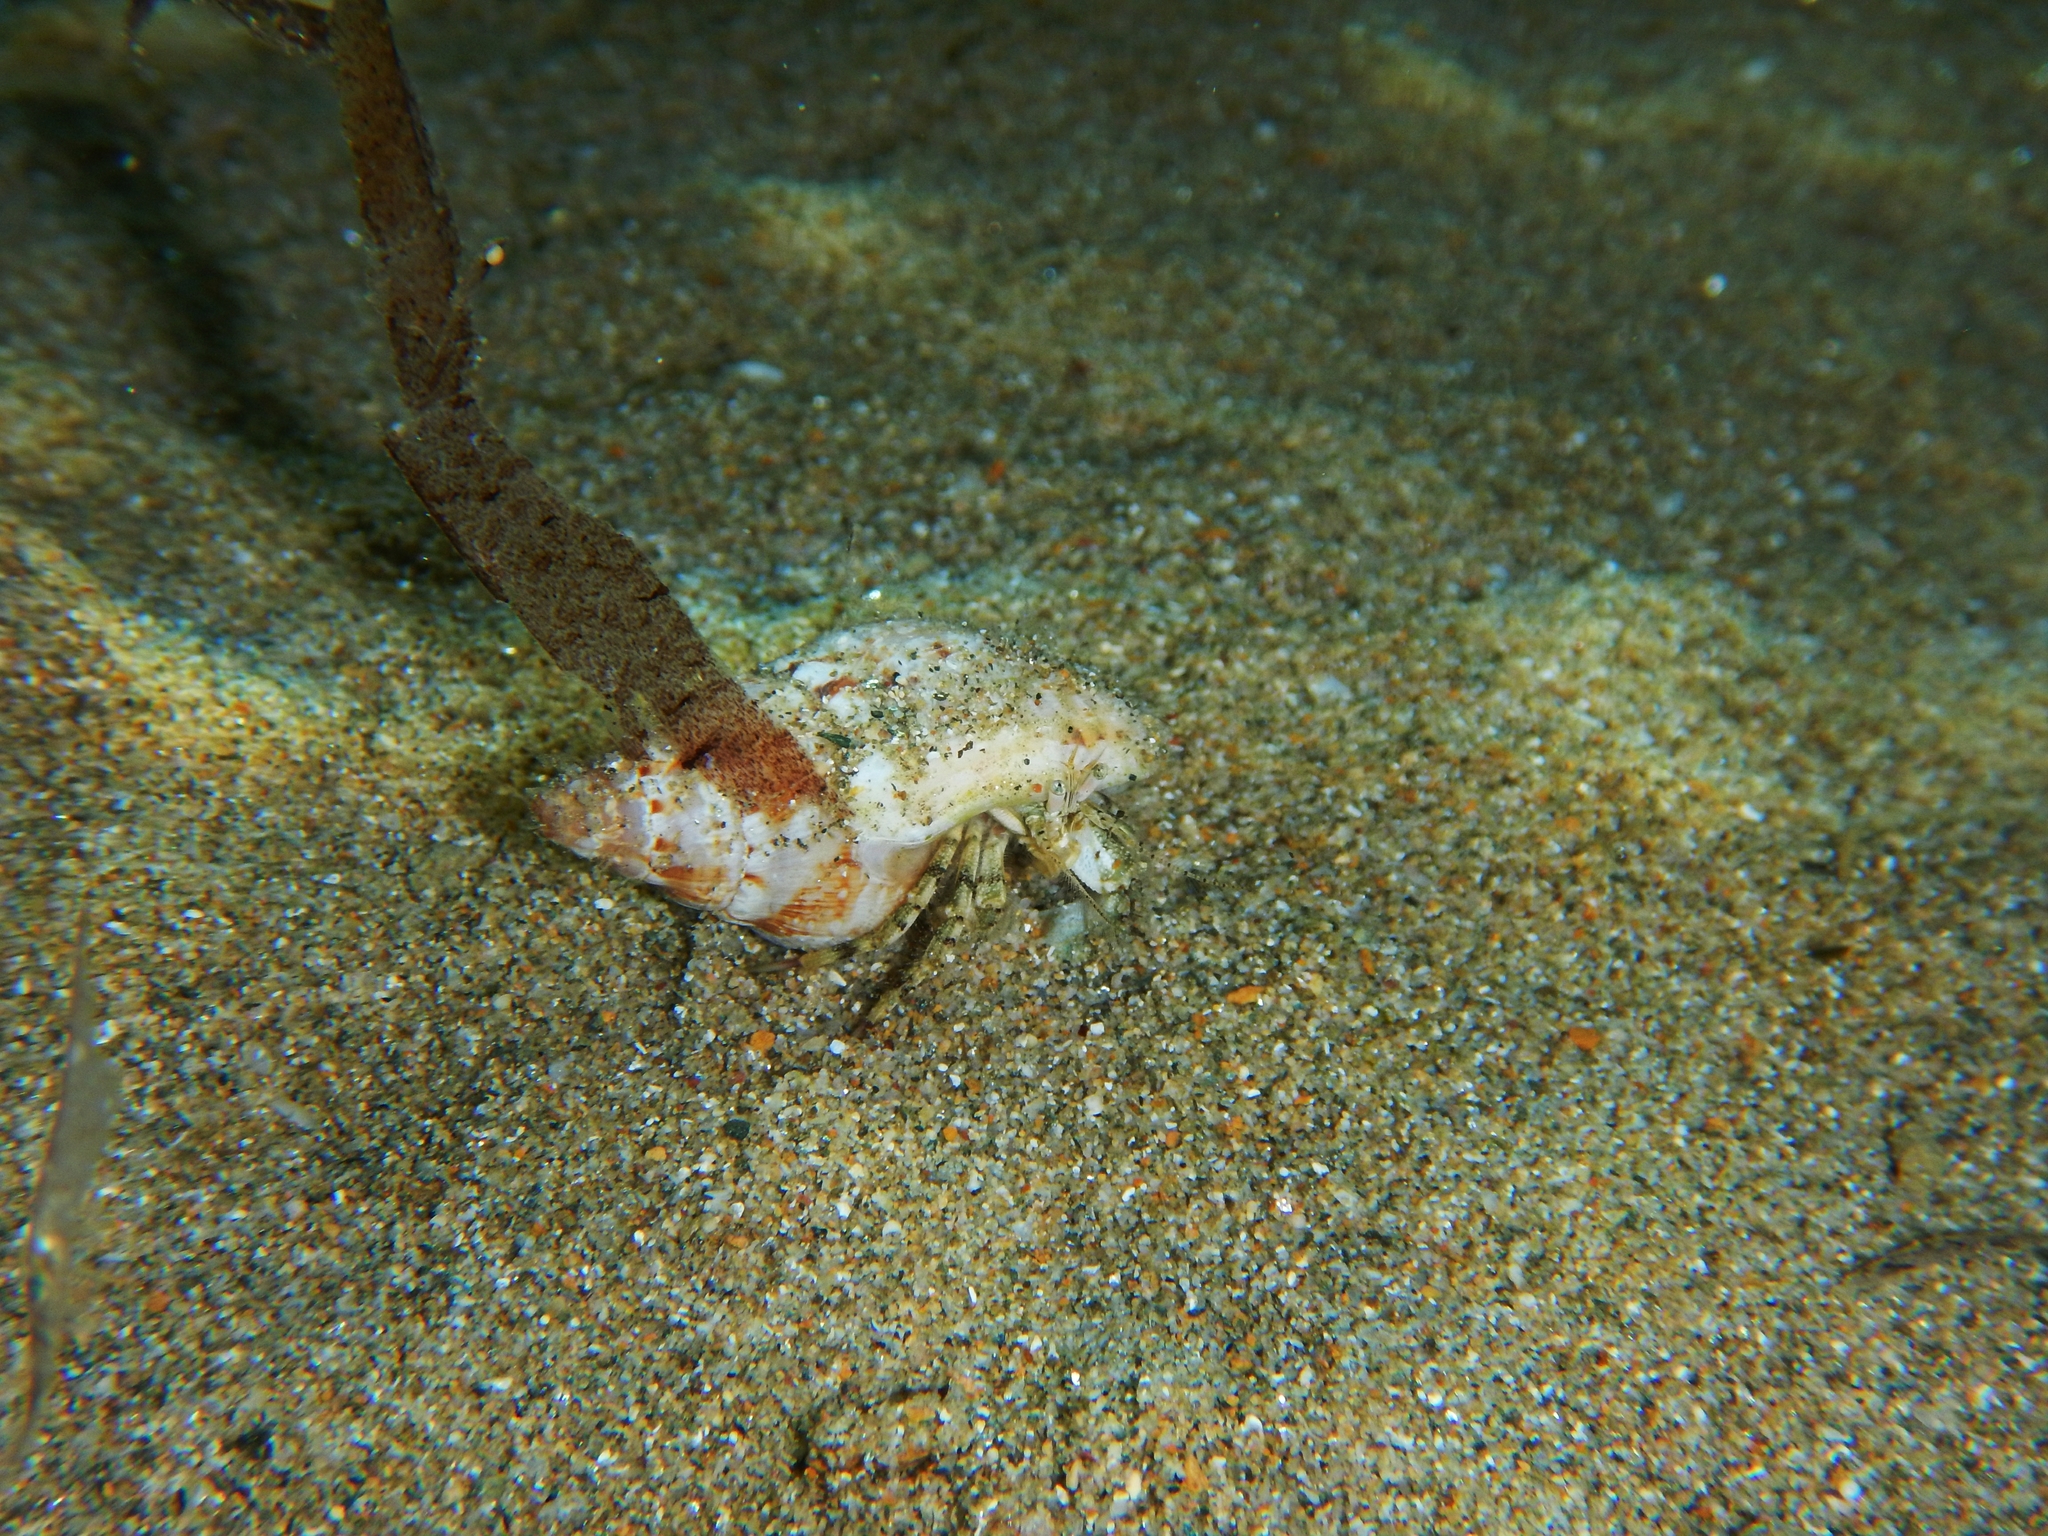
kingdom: Animalia
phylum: Arthropoda
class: Malacostraca
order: Decapoda
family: Diogenidae
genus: Diogenes
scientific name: Diogenes pugilator
